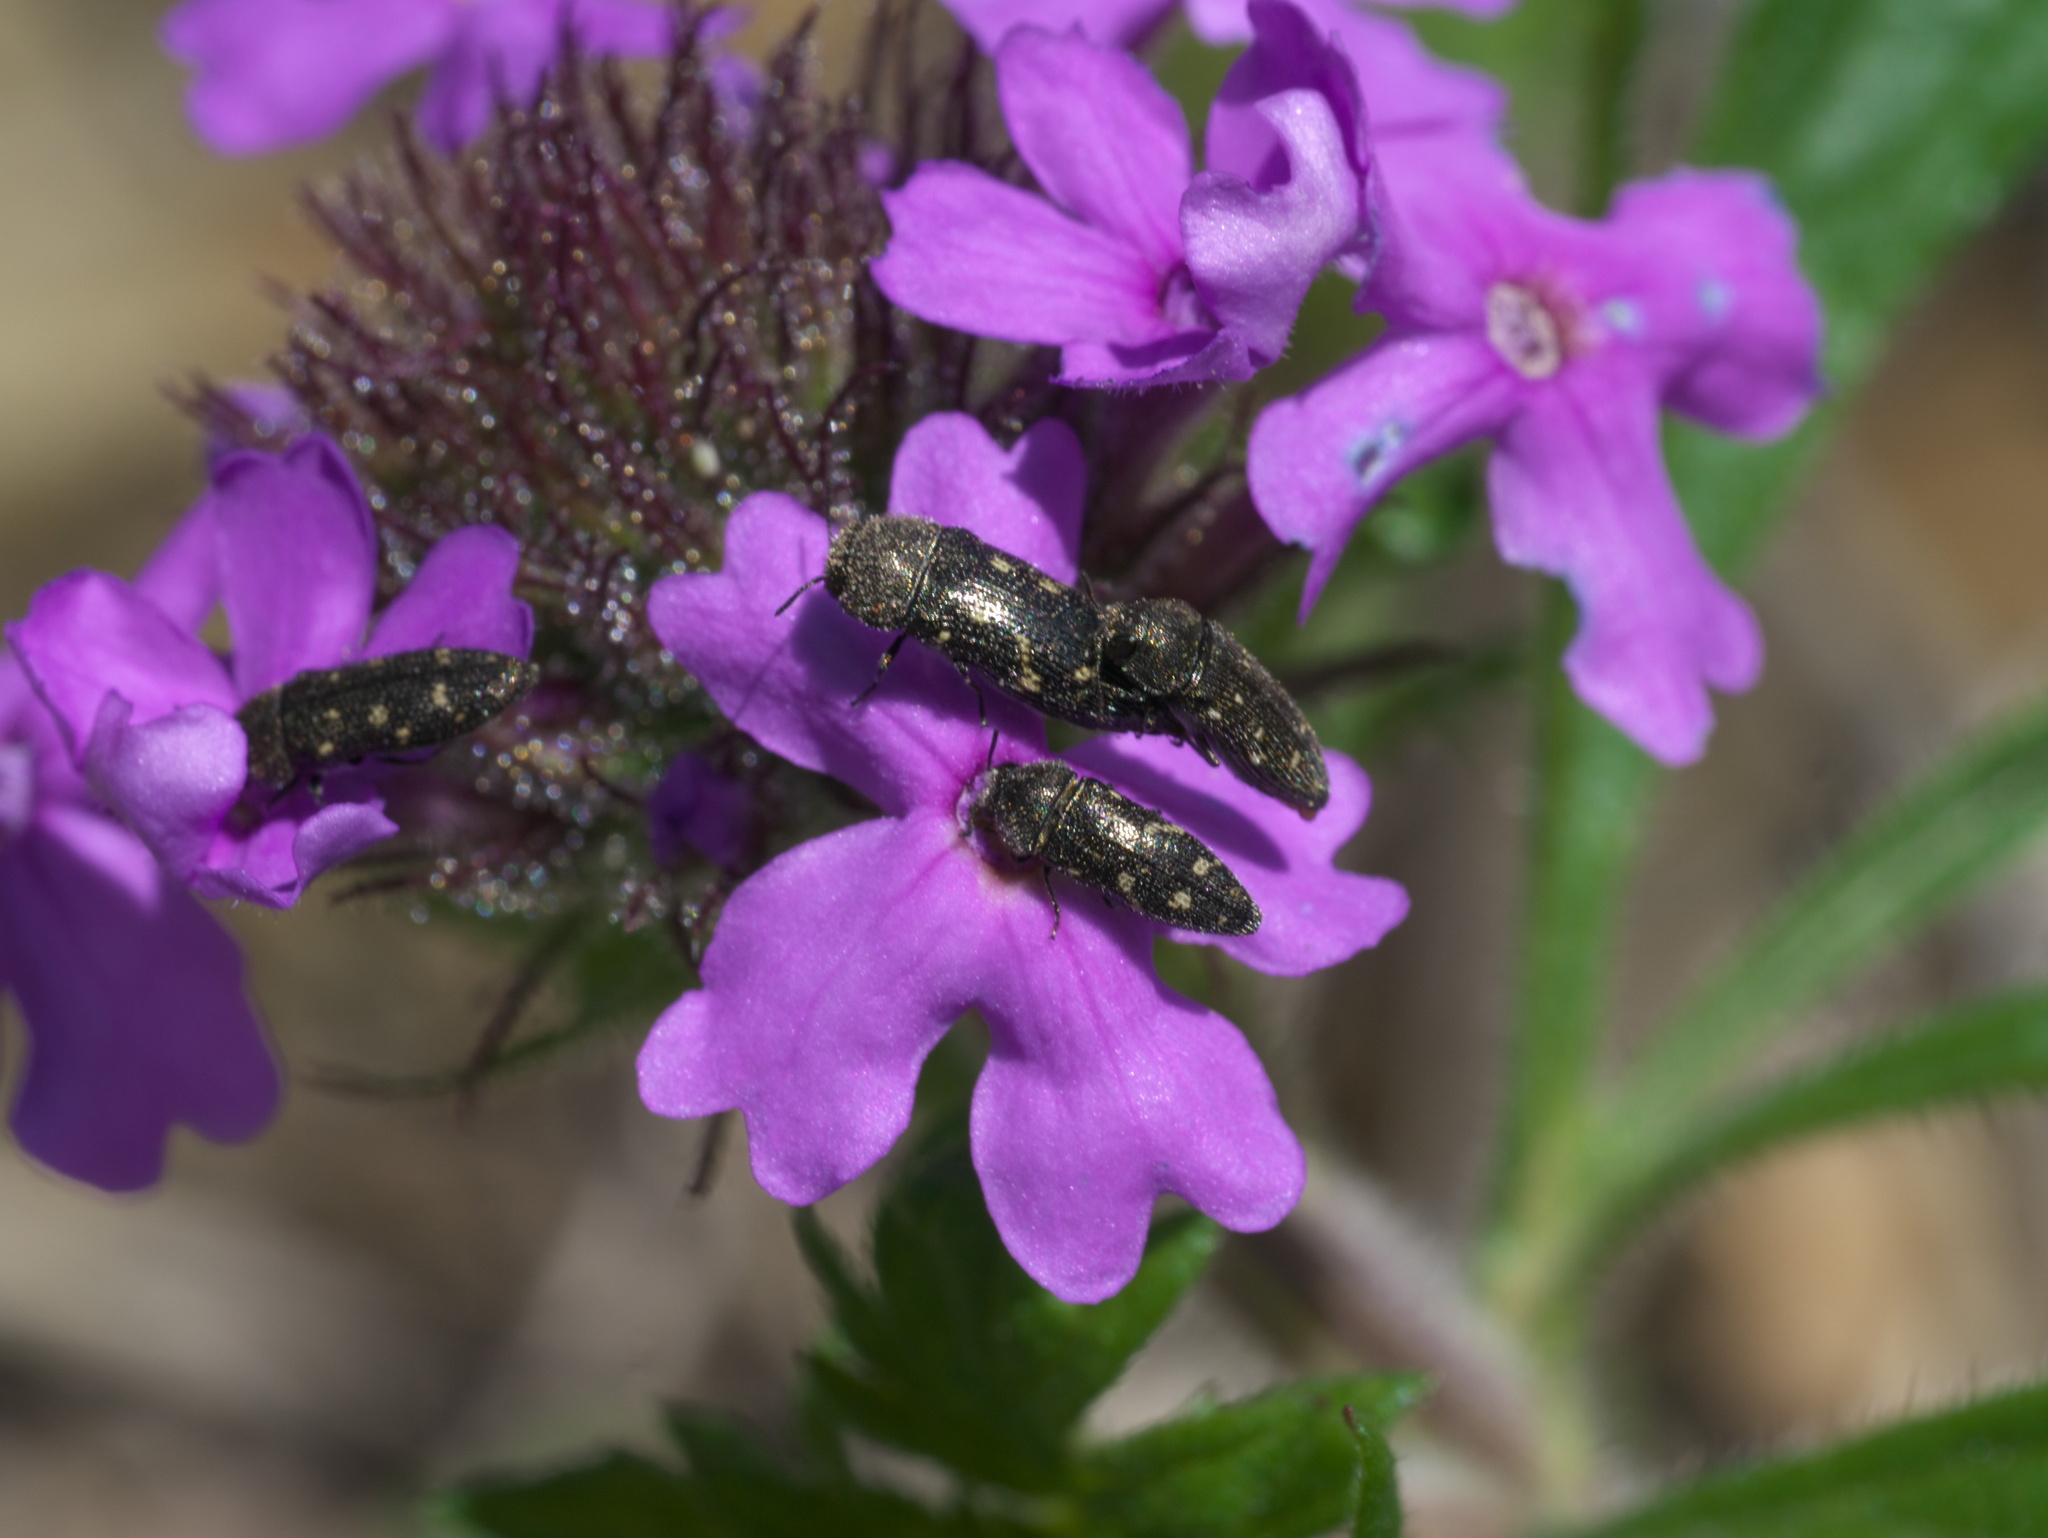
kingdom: Animalia
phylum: Arthropoda
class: Insecta
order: Coleoptera
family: Buprestidae
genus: Acmaeodera
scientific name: Acmaeodera tubulus
